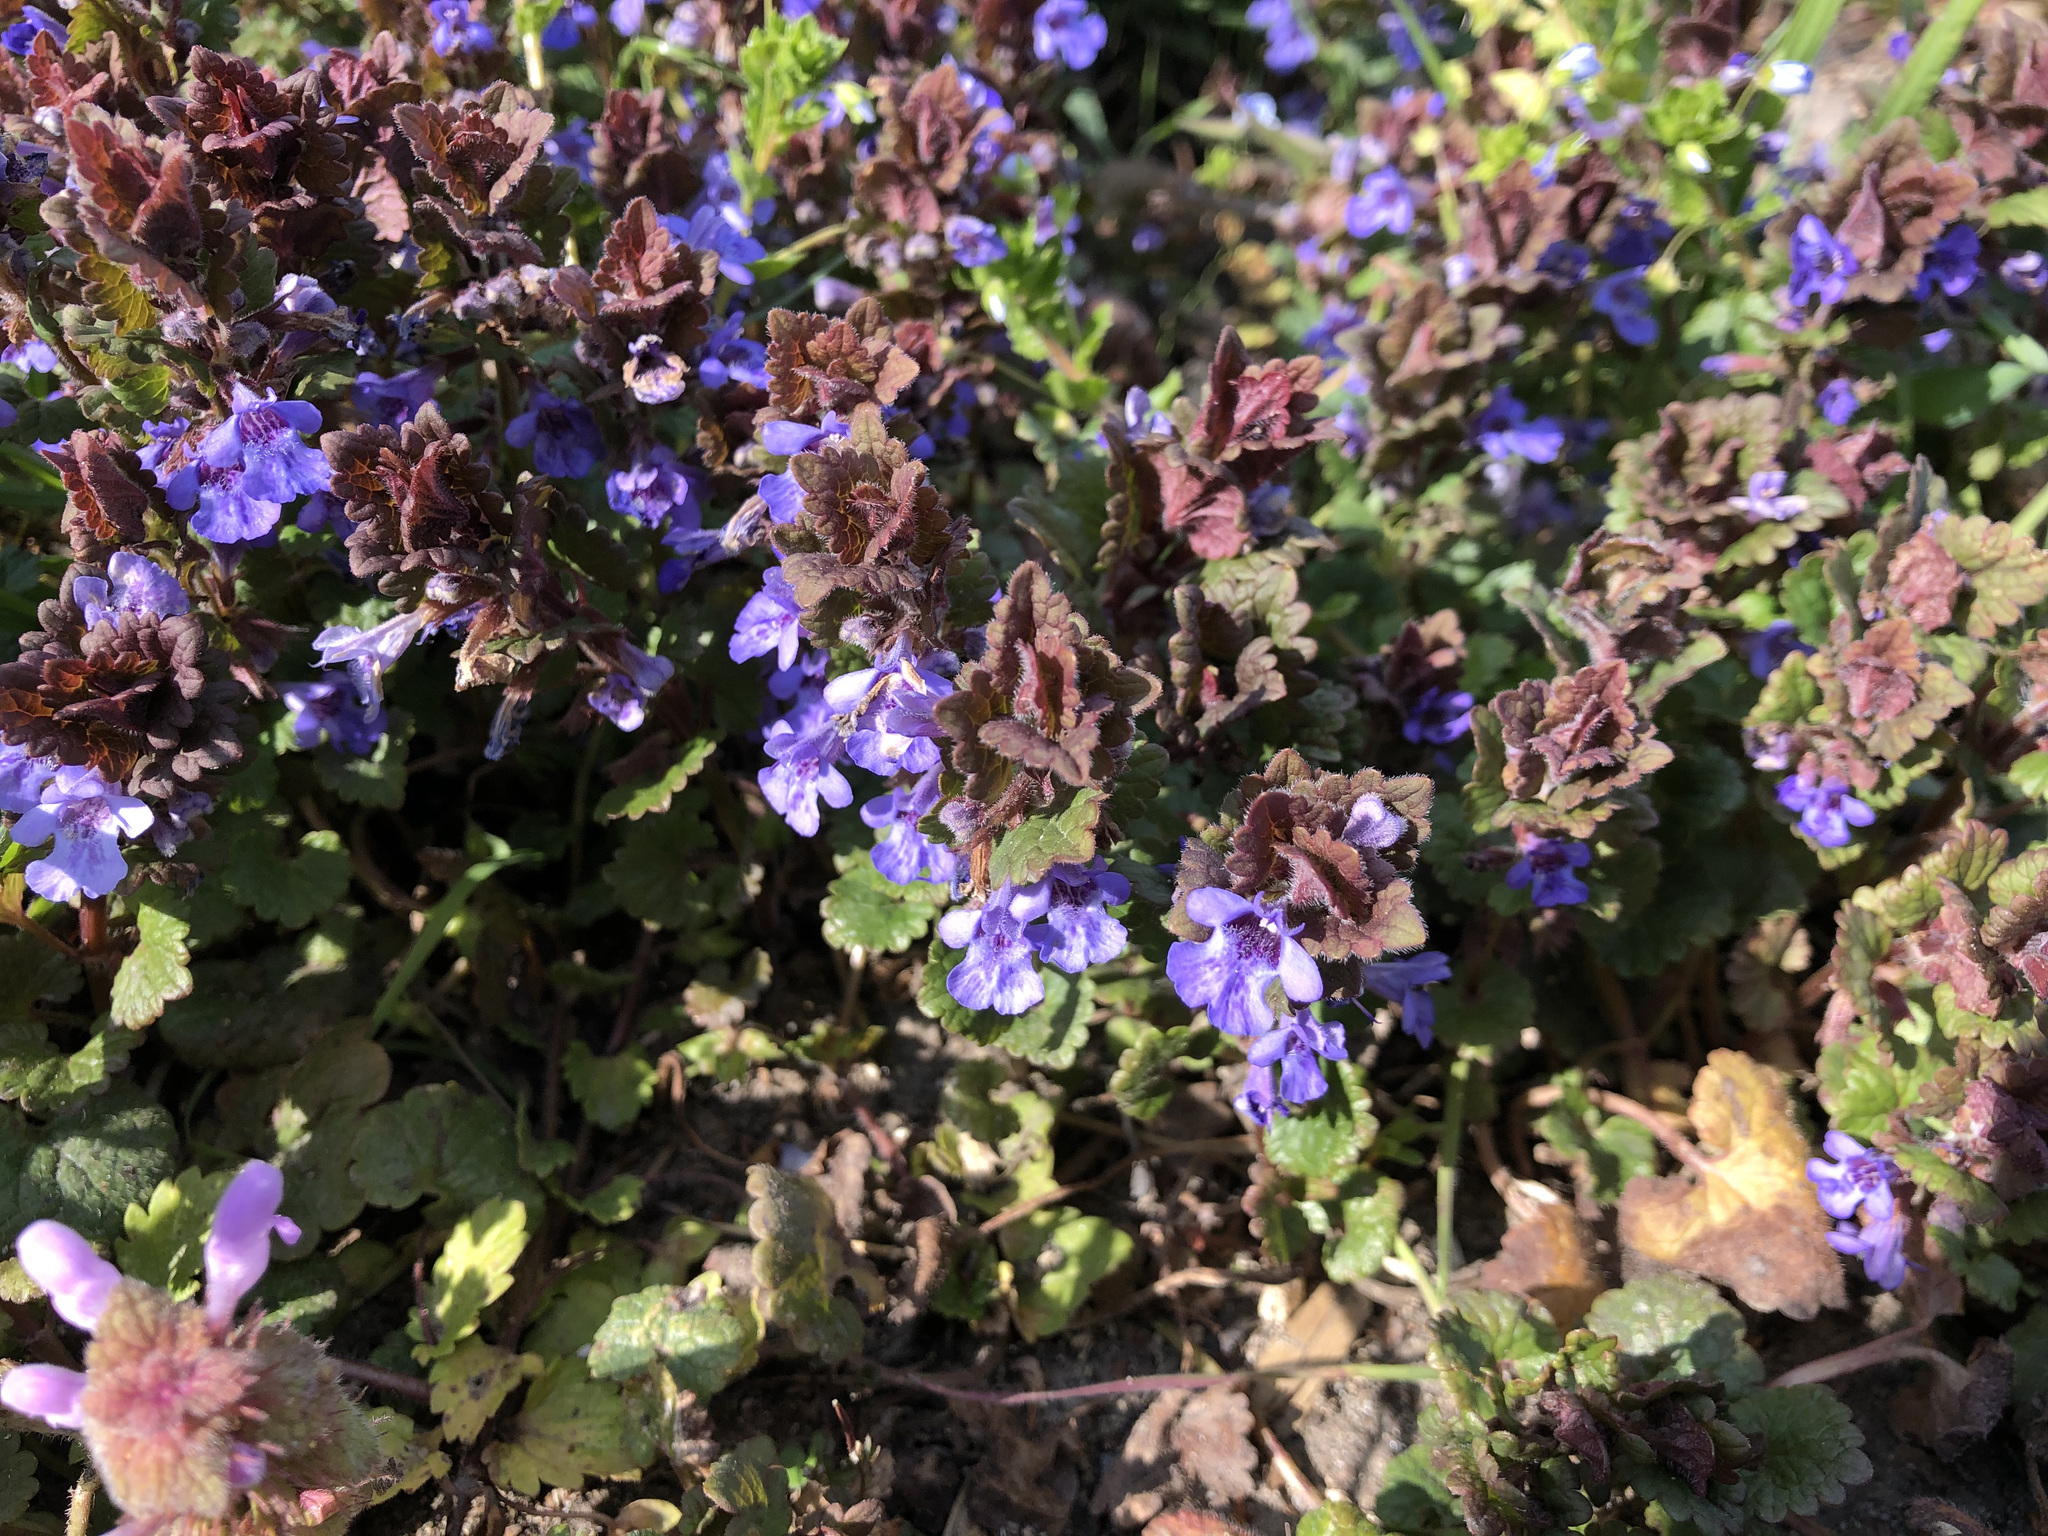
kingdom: Plantae
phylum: Tracheophyta
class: Magnoliopsida
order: Lamiales
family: Lamiaceae
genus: Glechoma
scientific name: Glechoma hederacea
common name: Ground ivy
